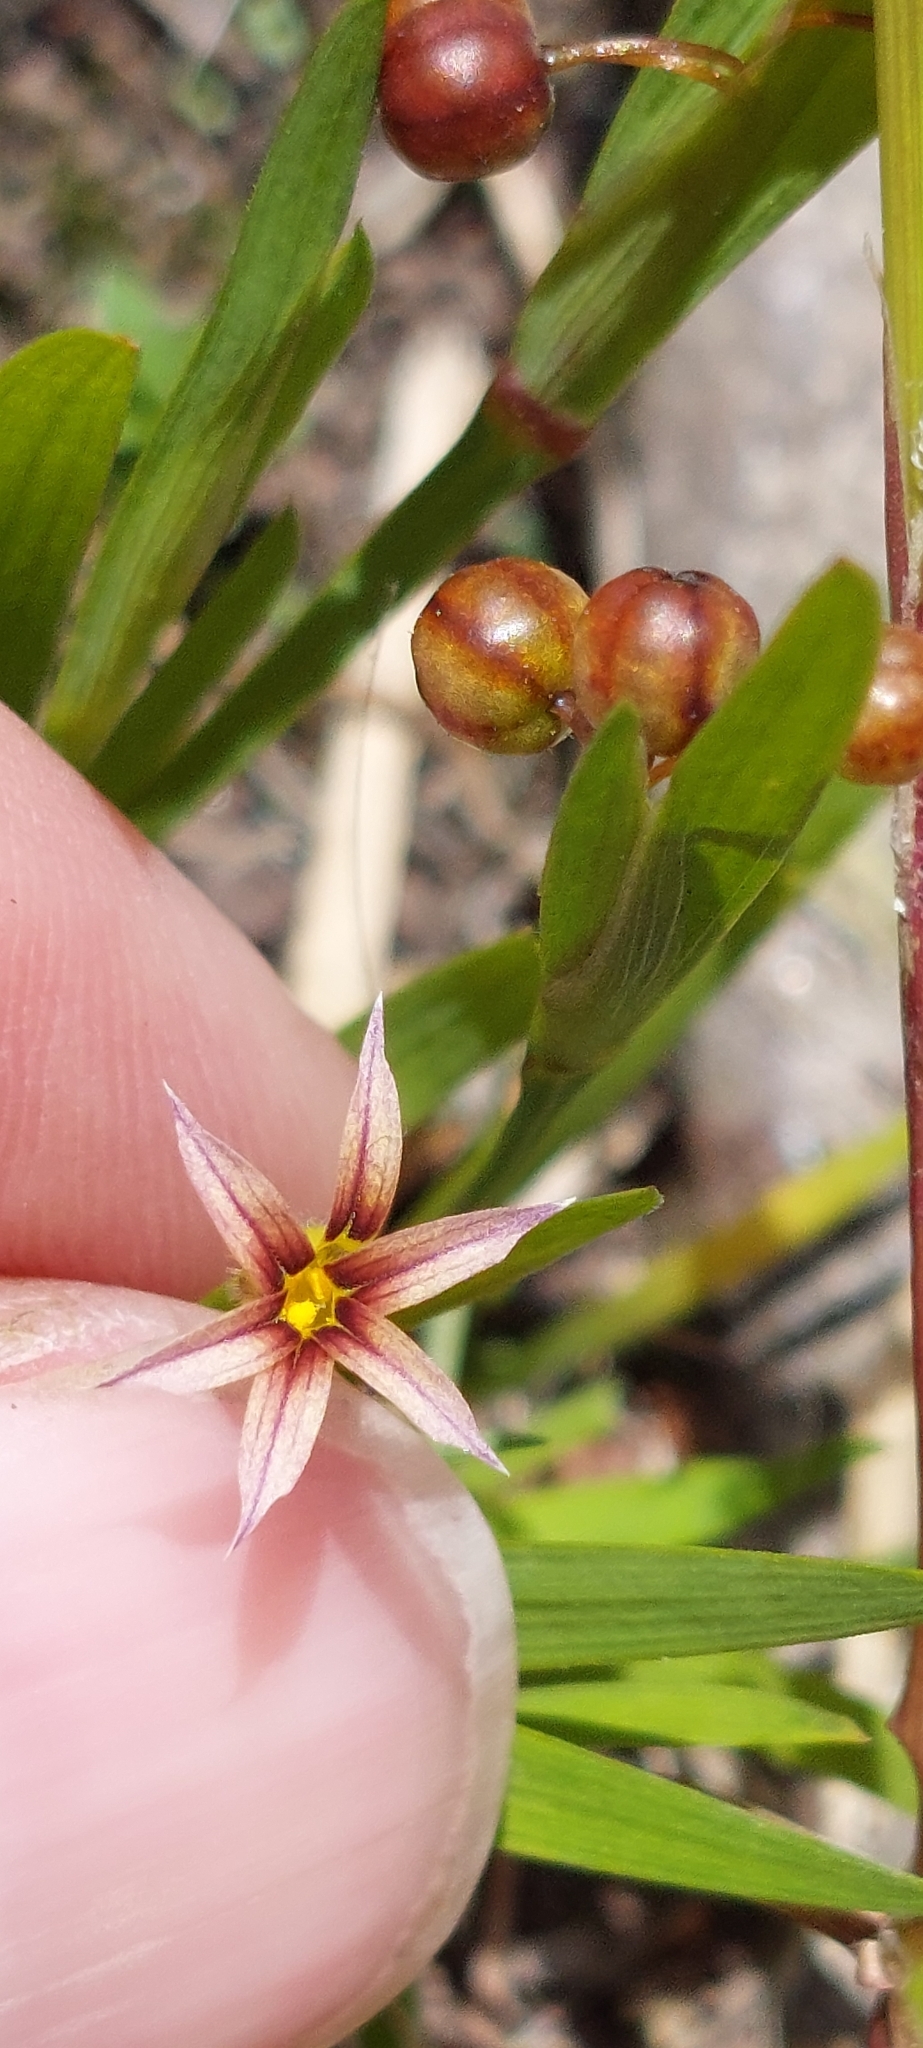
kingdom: Plantae
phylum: Tracheophyta
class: Liliopsida
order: Asparagales
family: Iridaceae
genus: Sisyrinchium
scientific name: Sisyrinchium micranthum
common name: Bermuda pigroot
